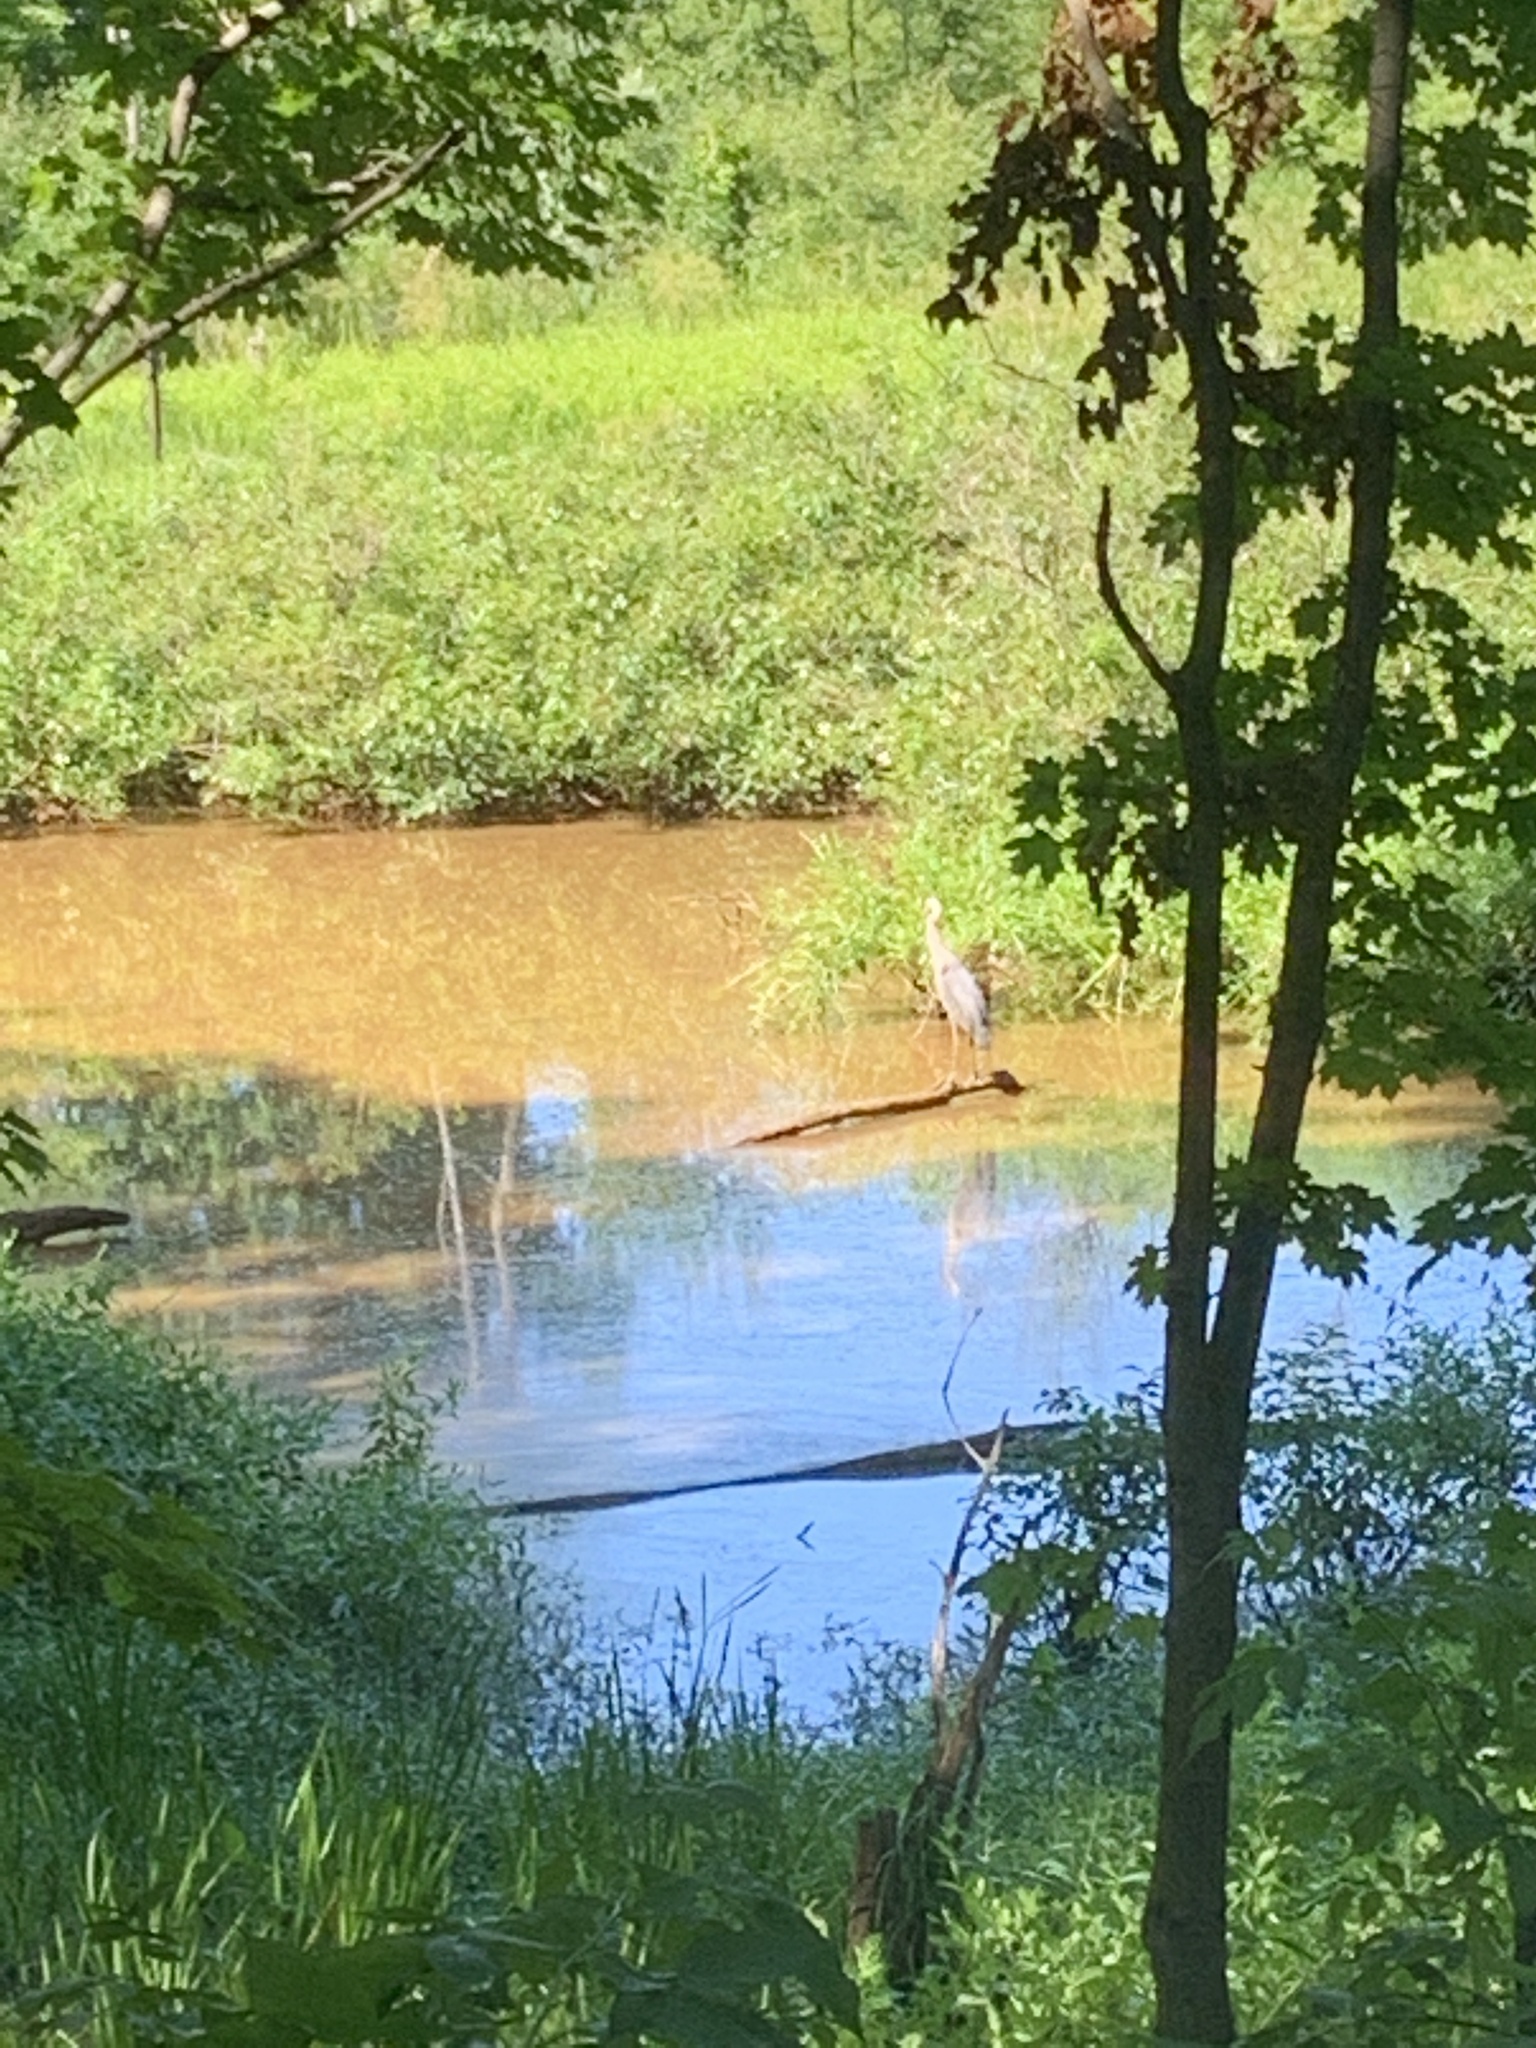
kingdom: Animalia
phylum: Chordata
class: Aves
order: Pelecaniformes
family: Ardeidae
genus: Ardea
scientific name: Ardea herodias
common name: Great blue heron
